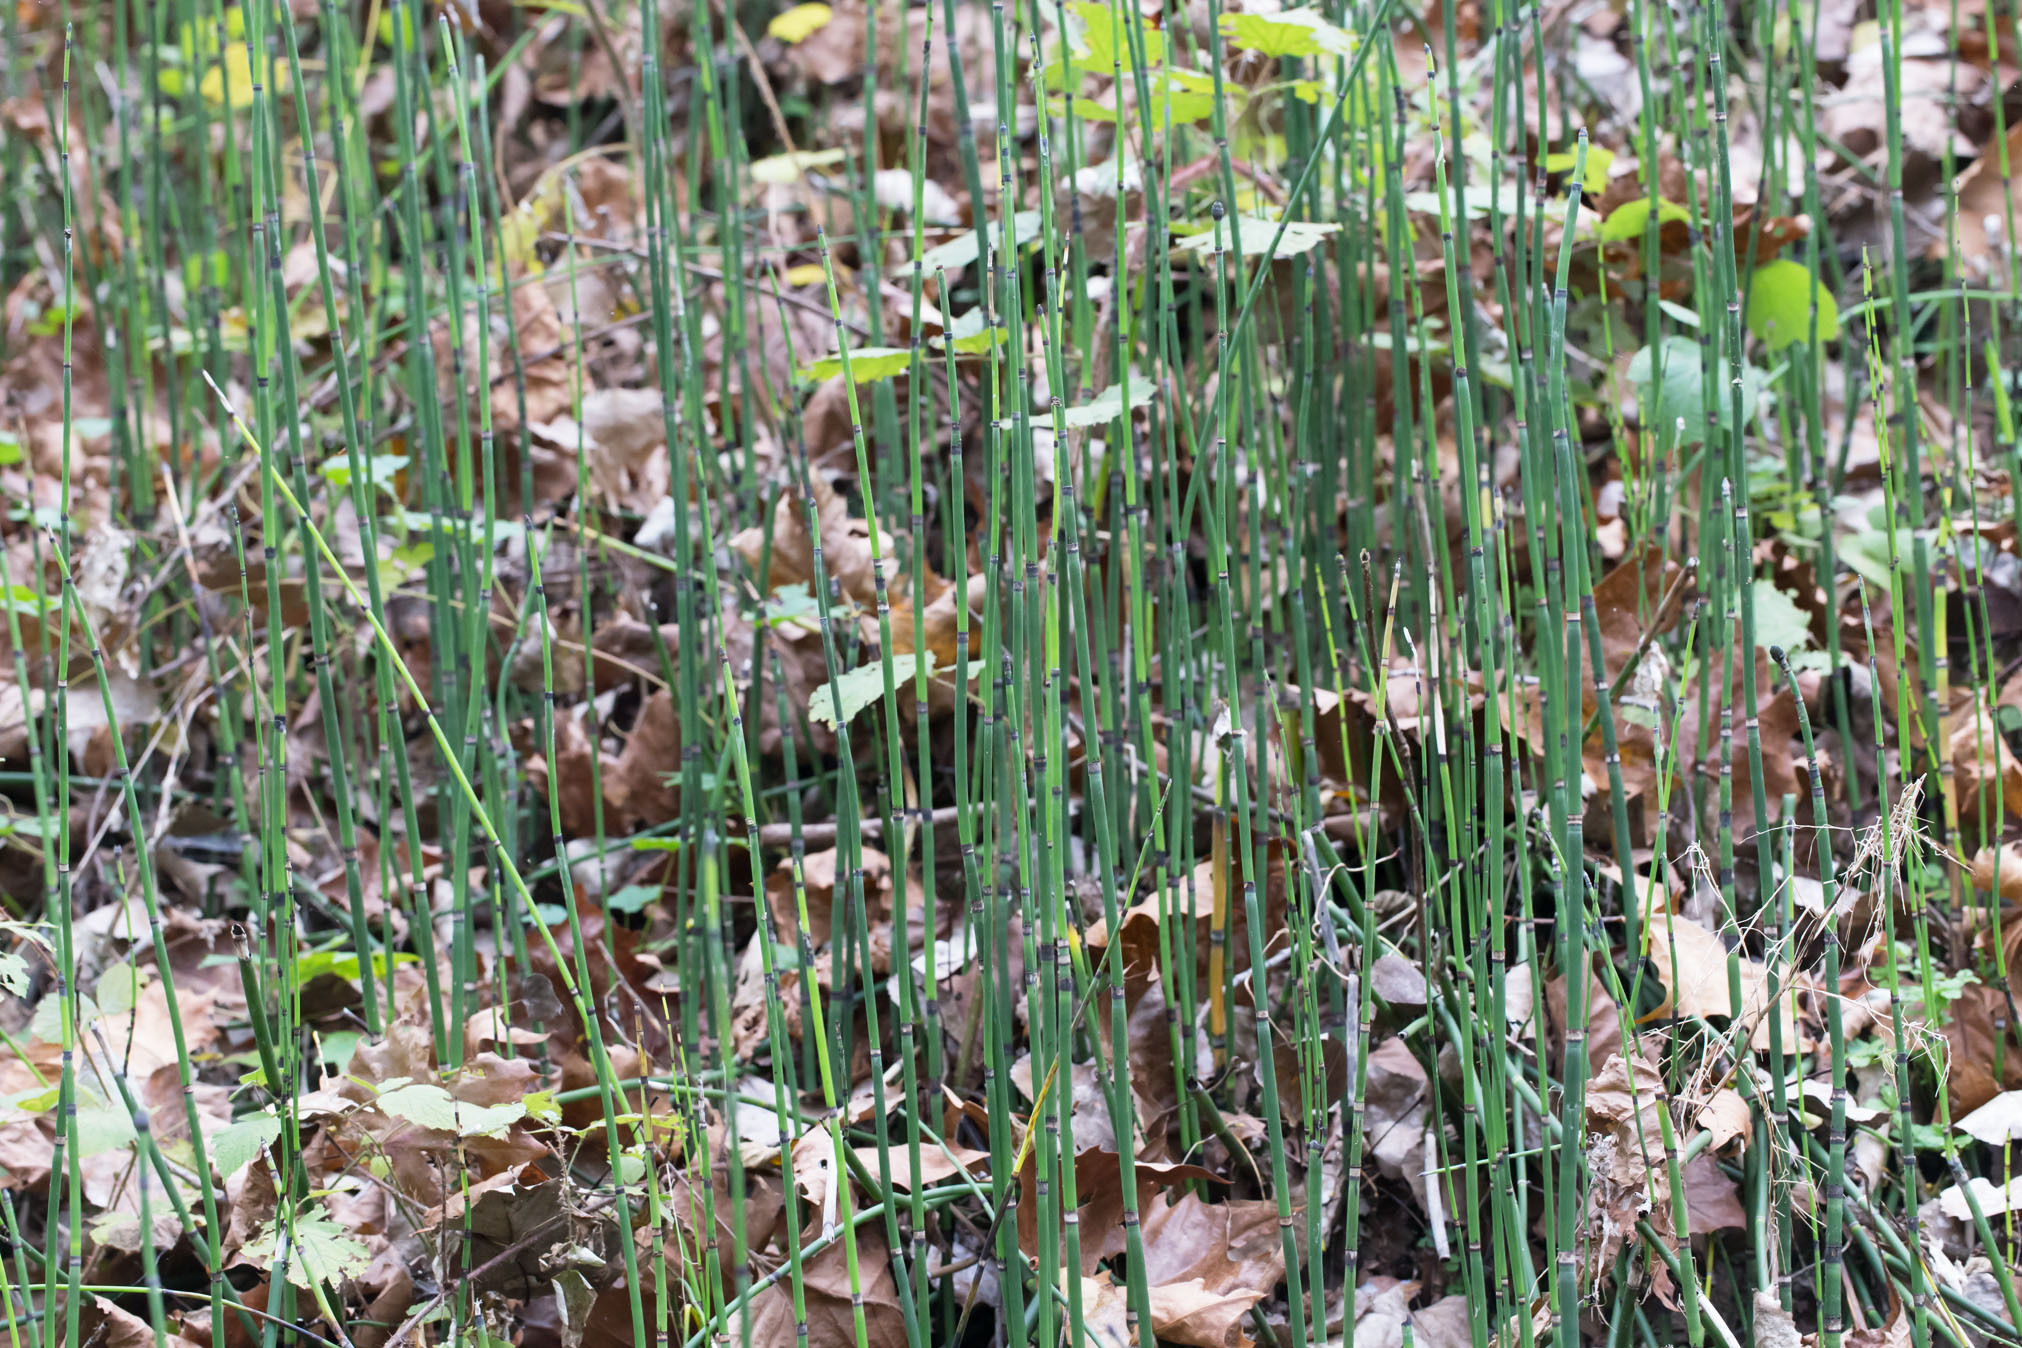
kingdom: Plantae
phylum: Tracheophyta
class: Polypodiopsida
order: Equisetales
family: Equisetaceae
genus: Equisetum
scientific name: Equisetum praealtum
